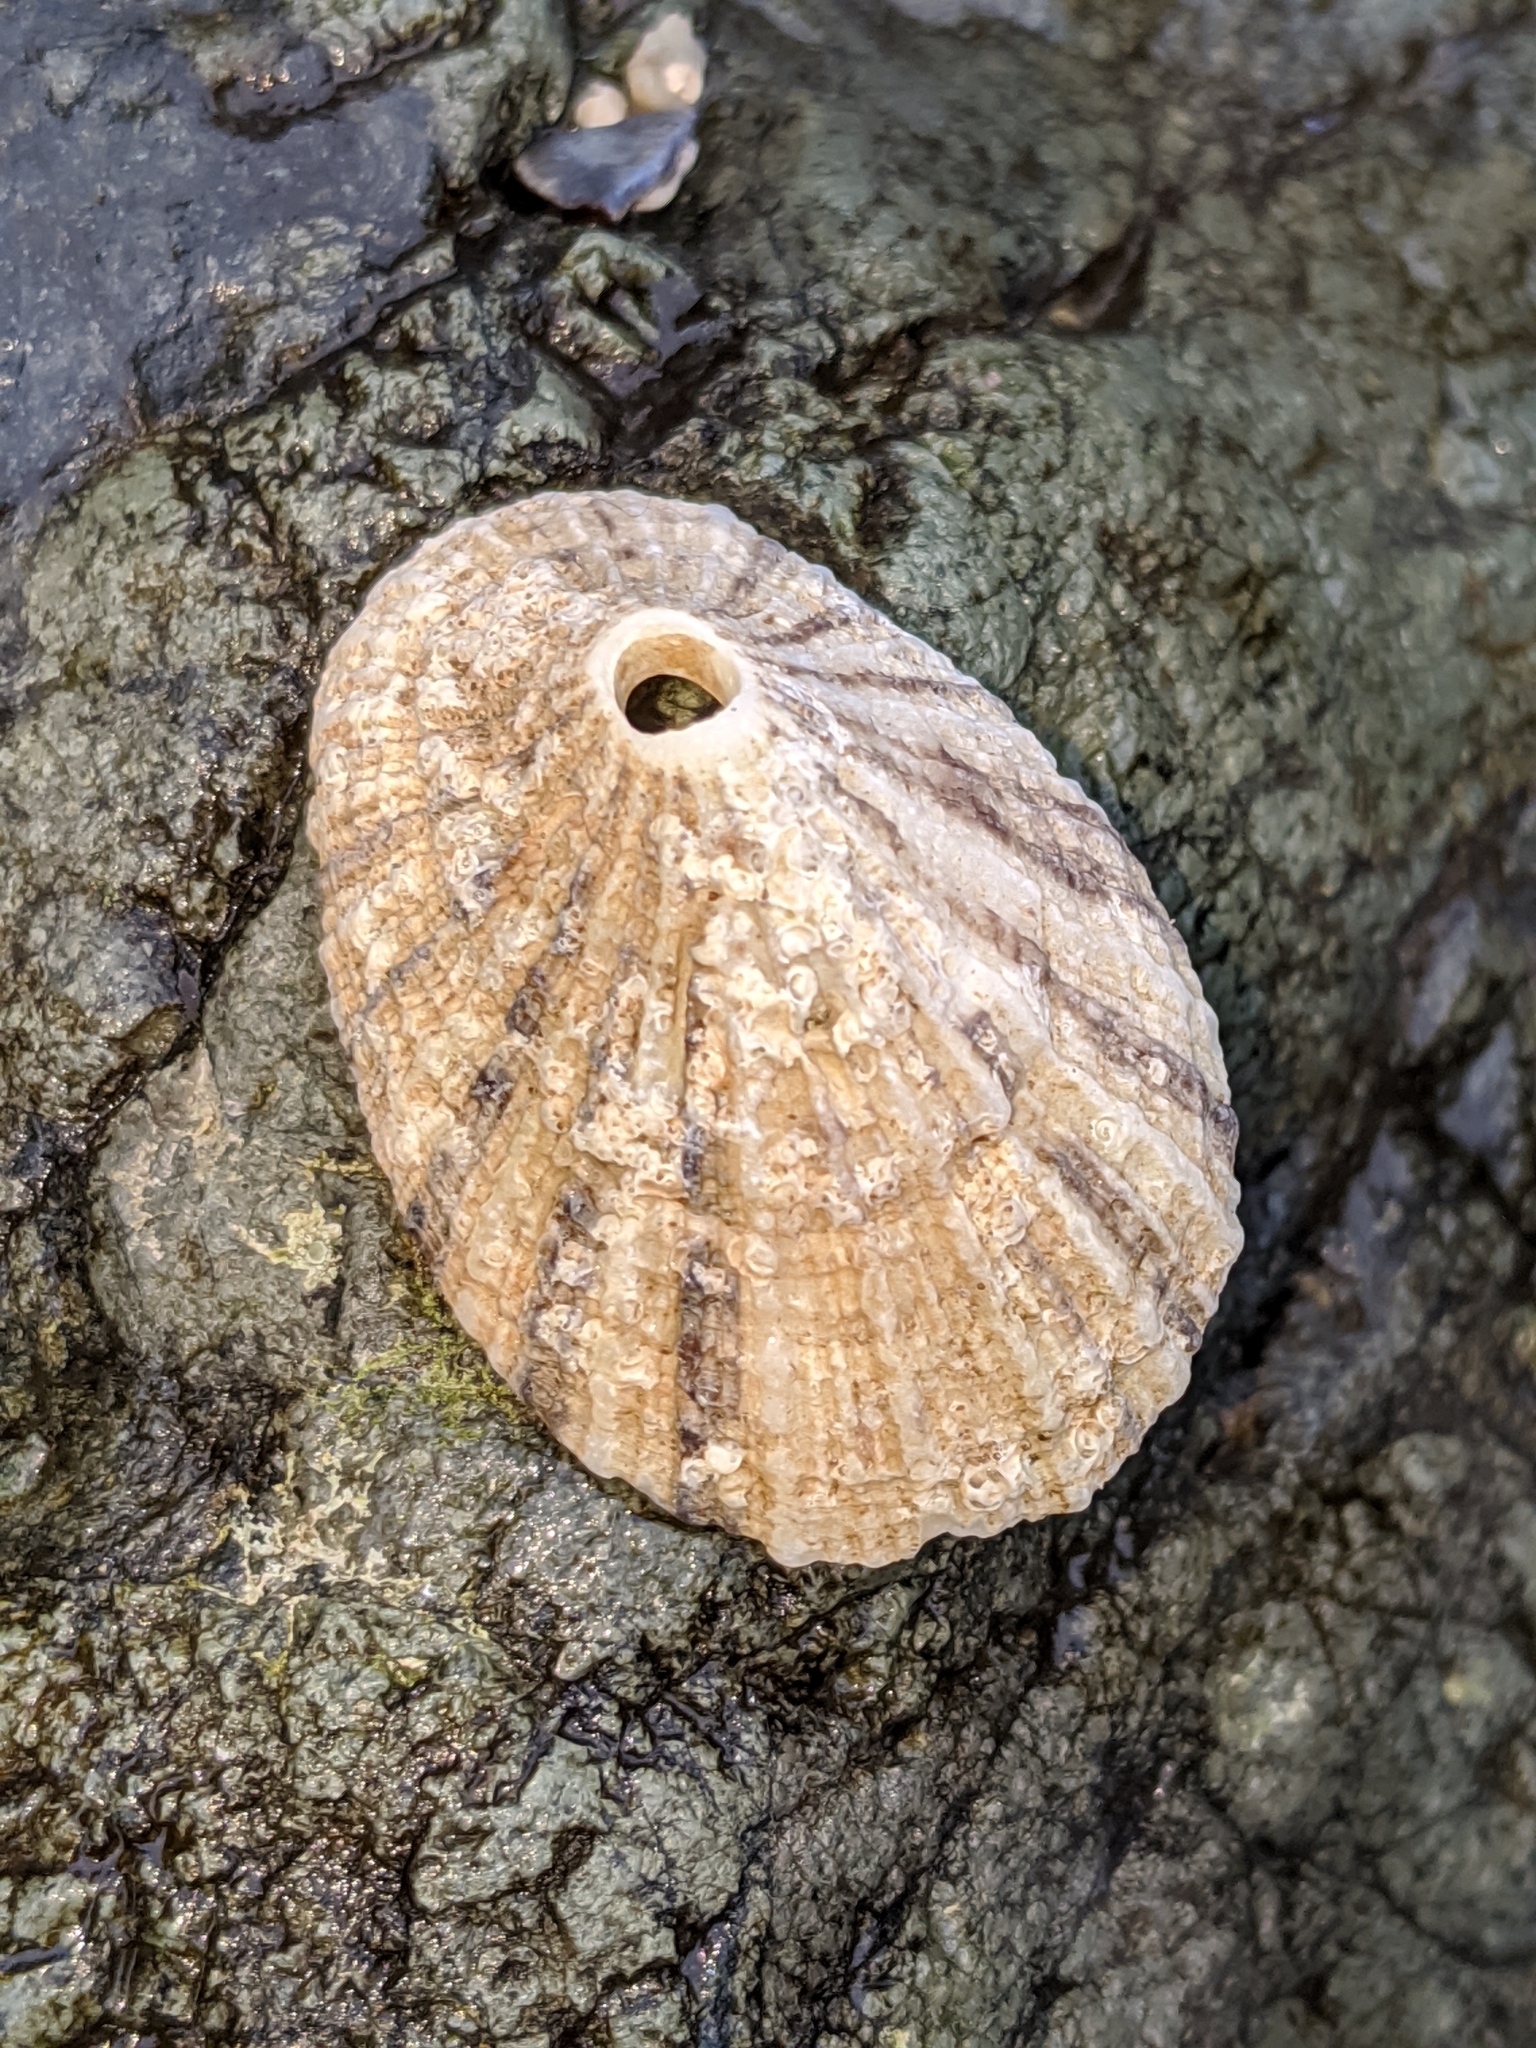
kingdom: Animalia
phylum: Mollusca
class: Gastropoda
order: Lepetellida
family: Fissurellidae
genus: Diodora
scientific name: Diodora aspera
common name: Rough keyhole limpet
